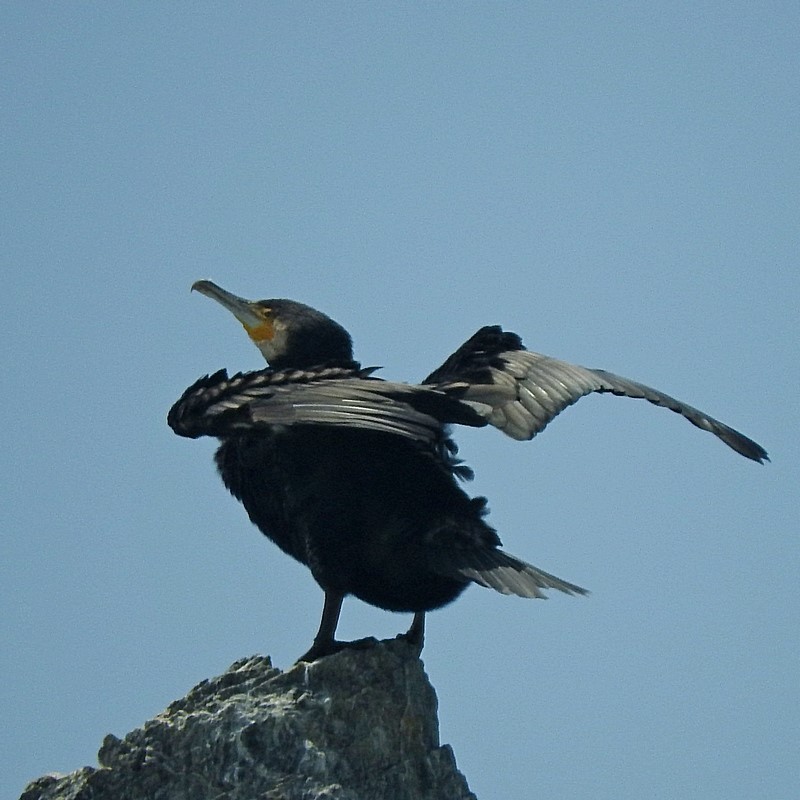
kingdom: Animalia
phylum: Chordata
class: Aves
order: Suliformes
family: Phalacrocoracidae
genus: Phalacrocorax
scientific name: Phalacrocorax carbo
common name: Great cormorant
